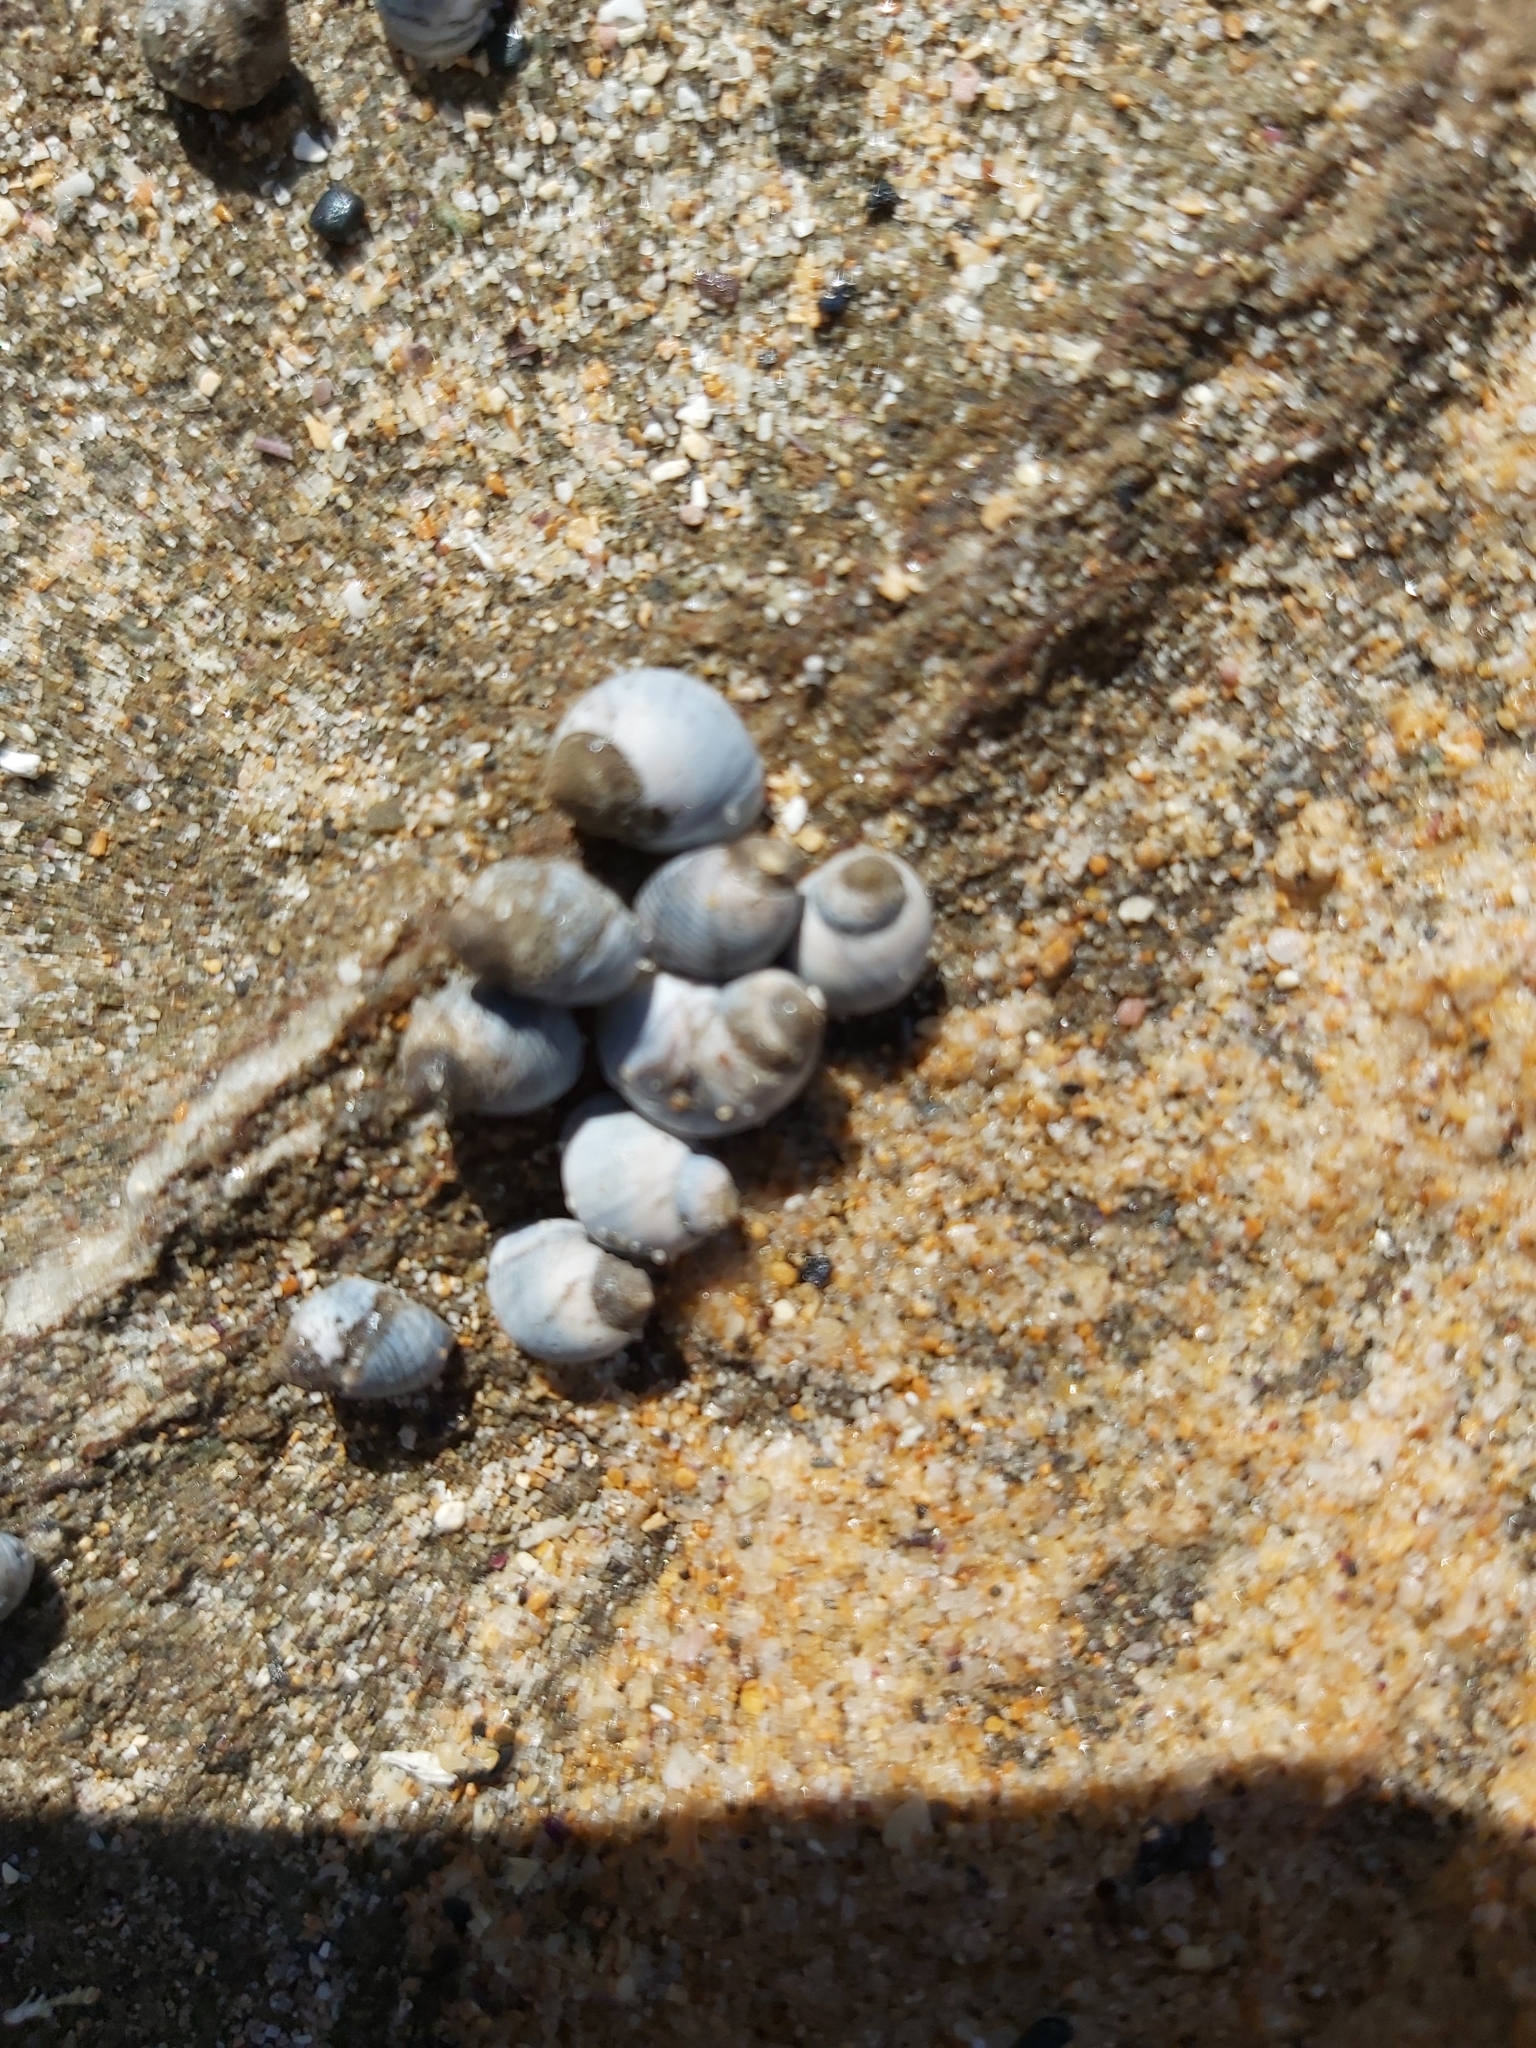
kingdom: Animalia
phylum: Mollusca
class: Gastropoda
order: Littorinimorpha
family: Littorinidae
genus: Austrolittorina
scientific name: Austrolittorina unifasciata
